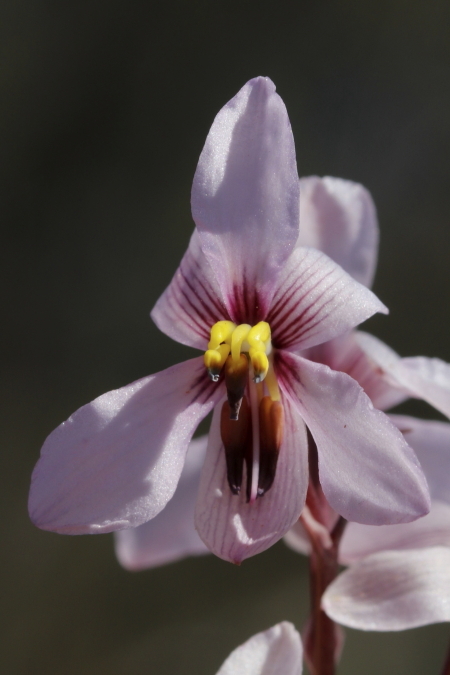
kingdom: Plantae
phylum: Tracheophyta
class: Liliopsida
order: Asparagales
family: Tecophilaeaceae
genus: Cyanella
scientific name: Cyanella orchidiformis
